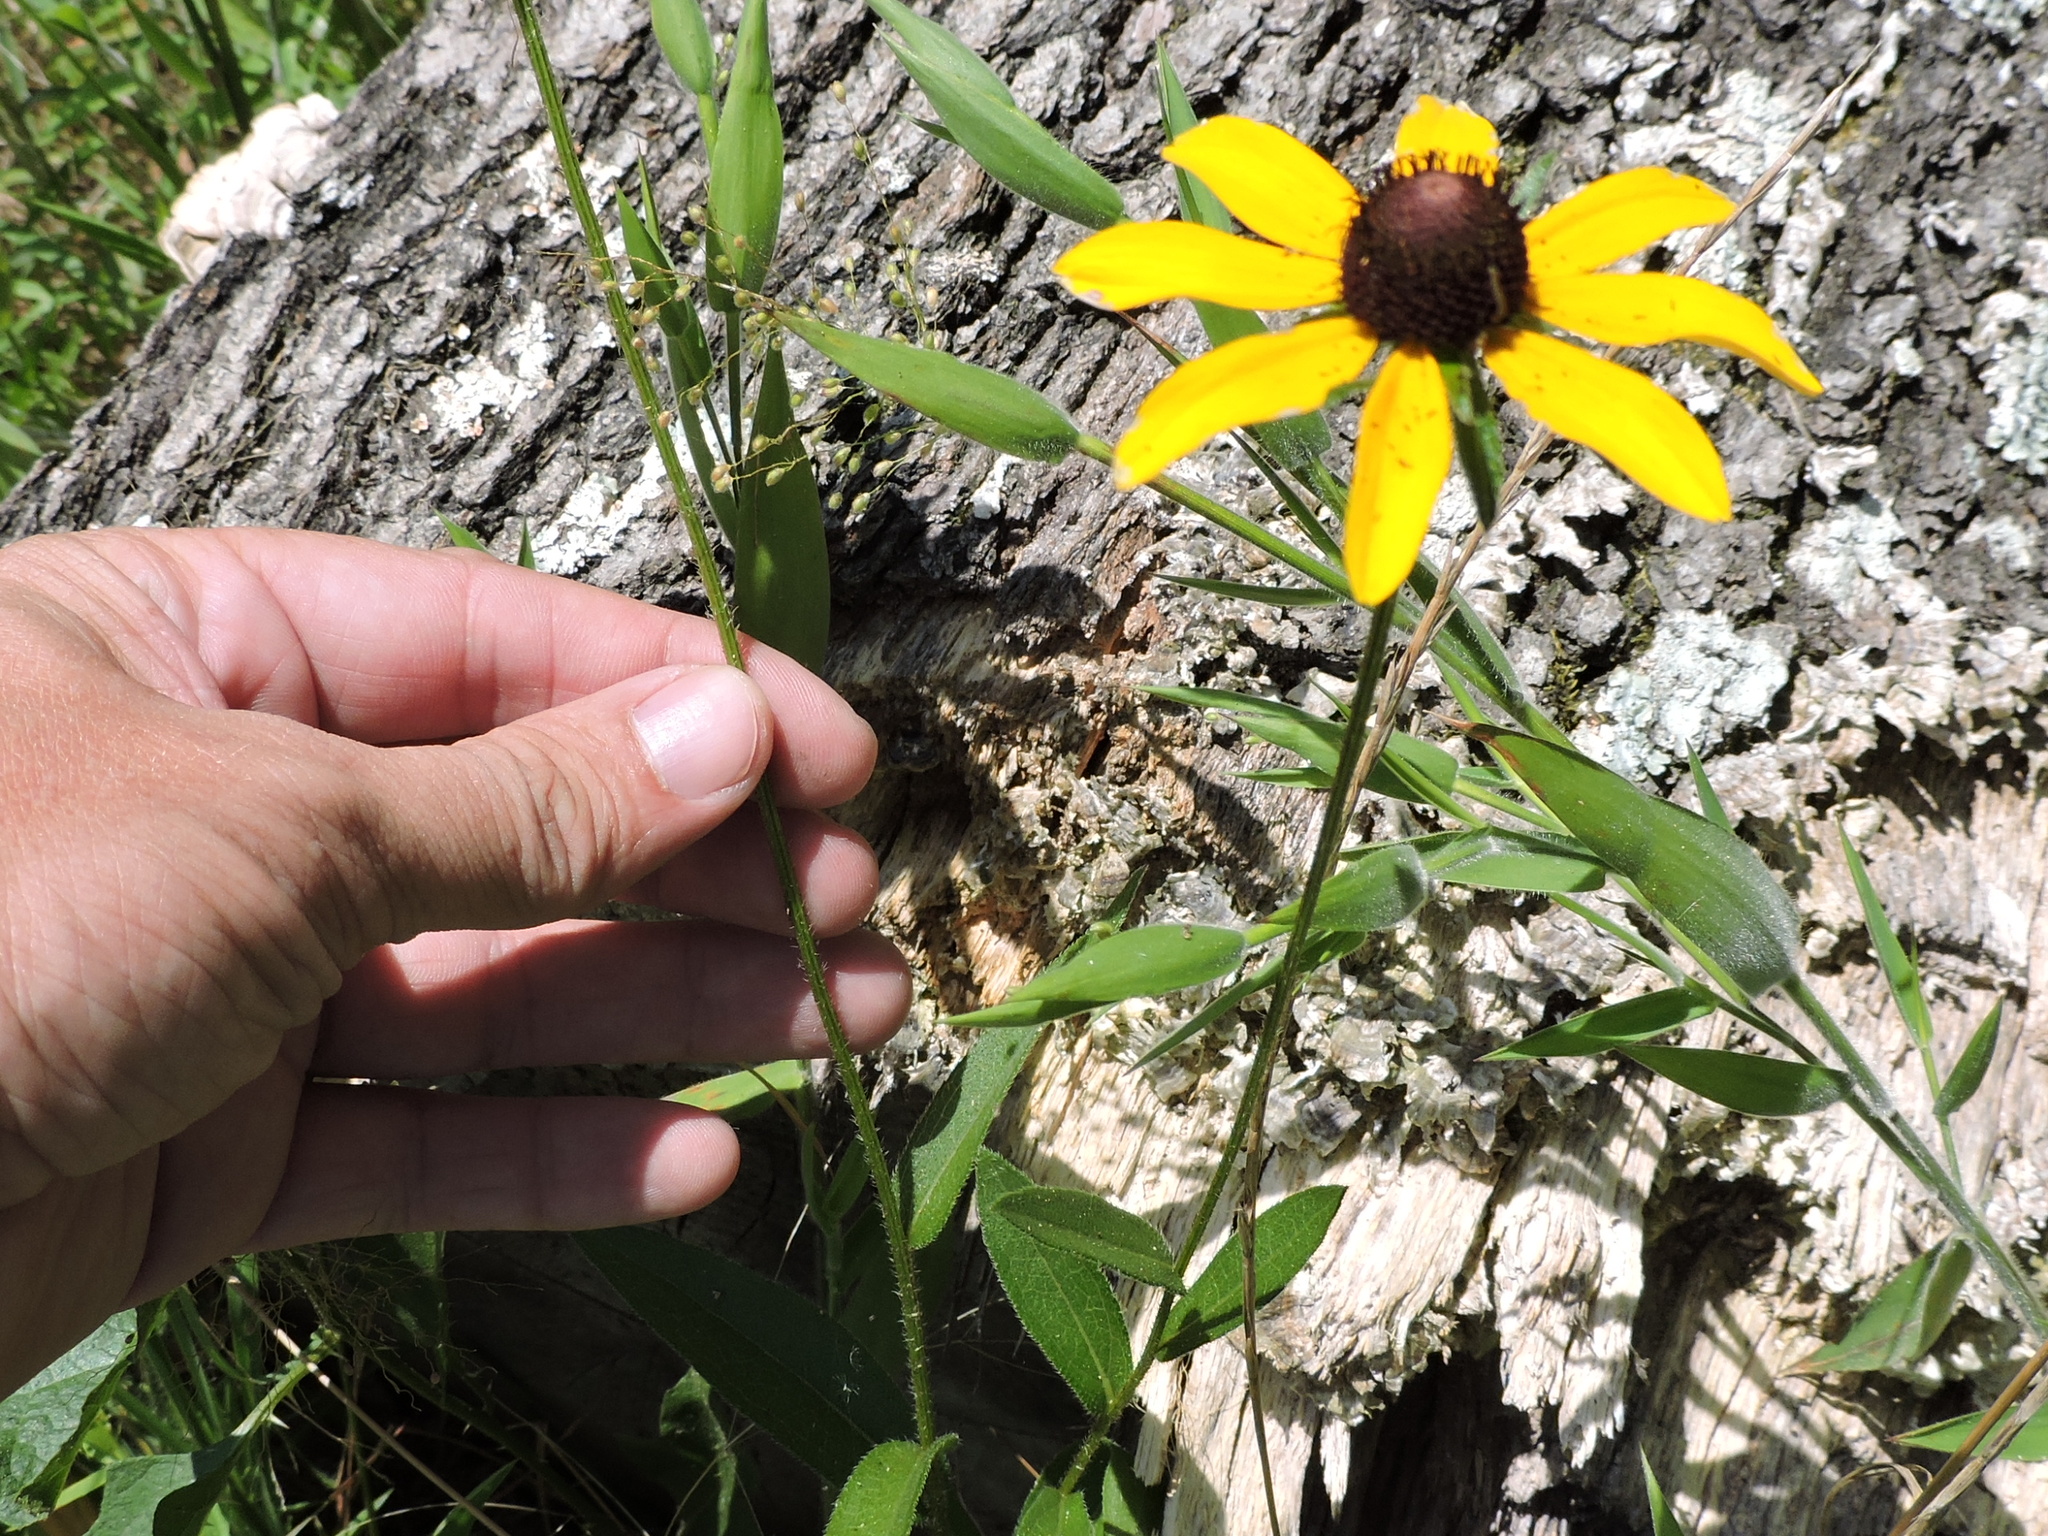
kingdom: Plantae
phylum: Tracheophyta
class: Magnoliopsida
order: Asterales
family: Asteraceae
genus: Rudbeckia
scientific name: Rudbeckia hirta
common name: Black-eyed-susan
